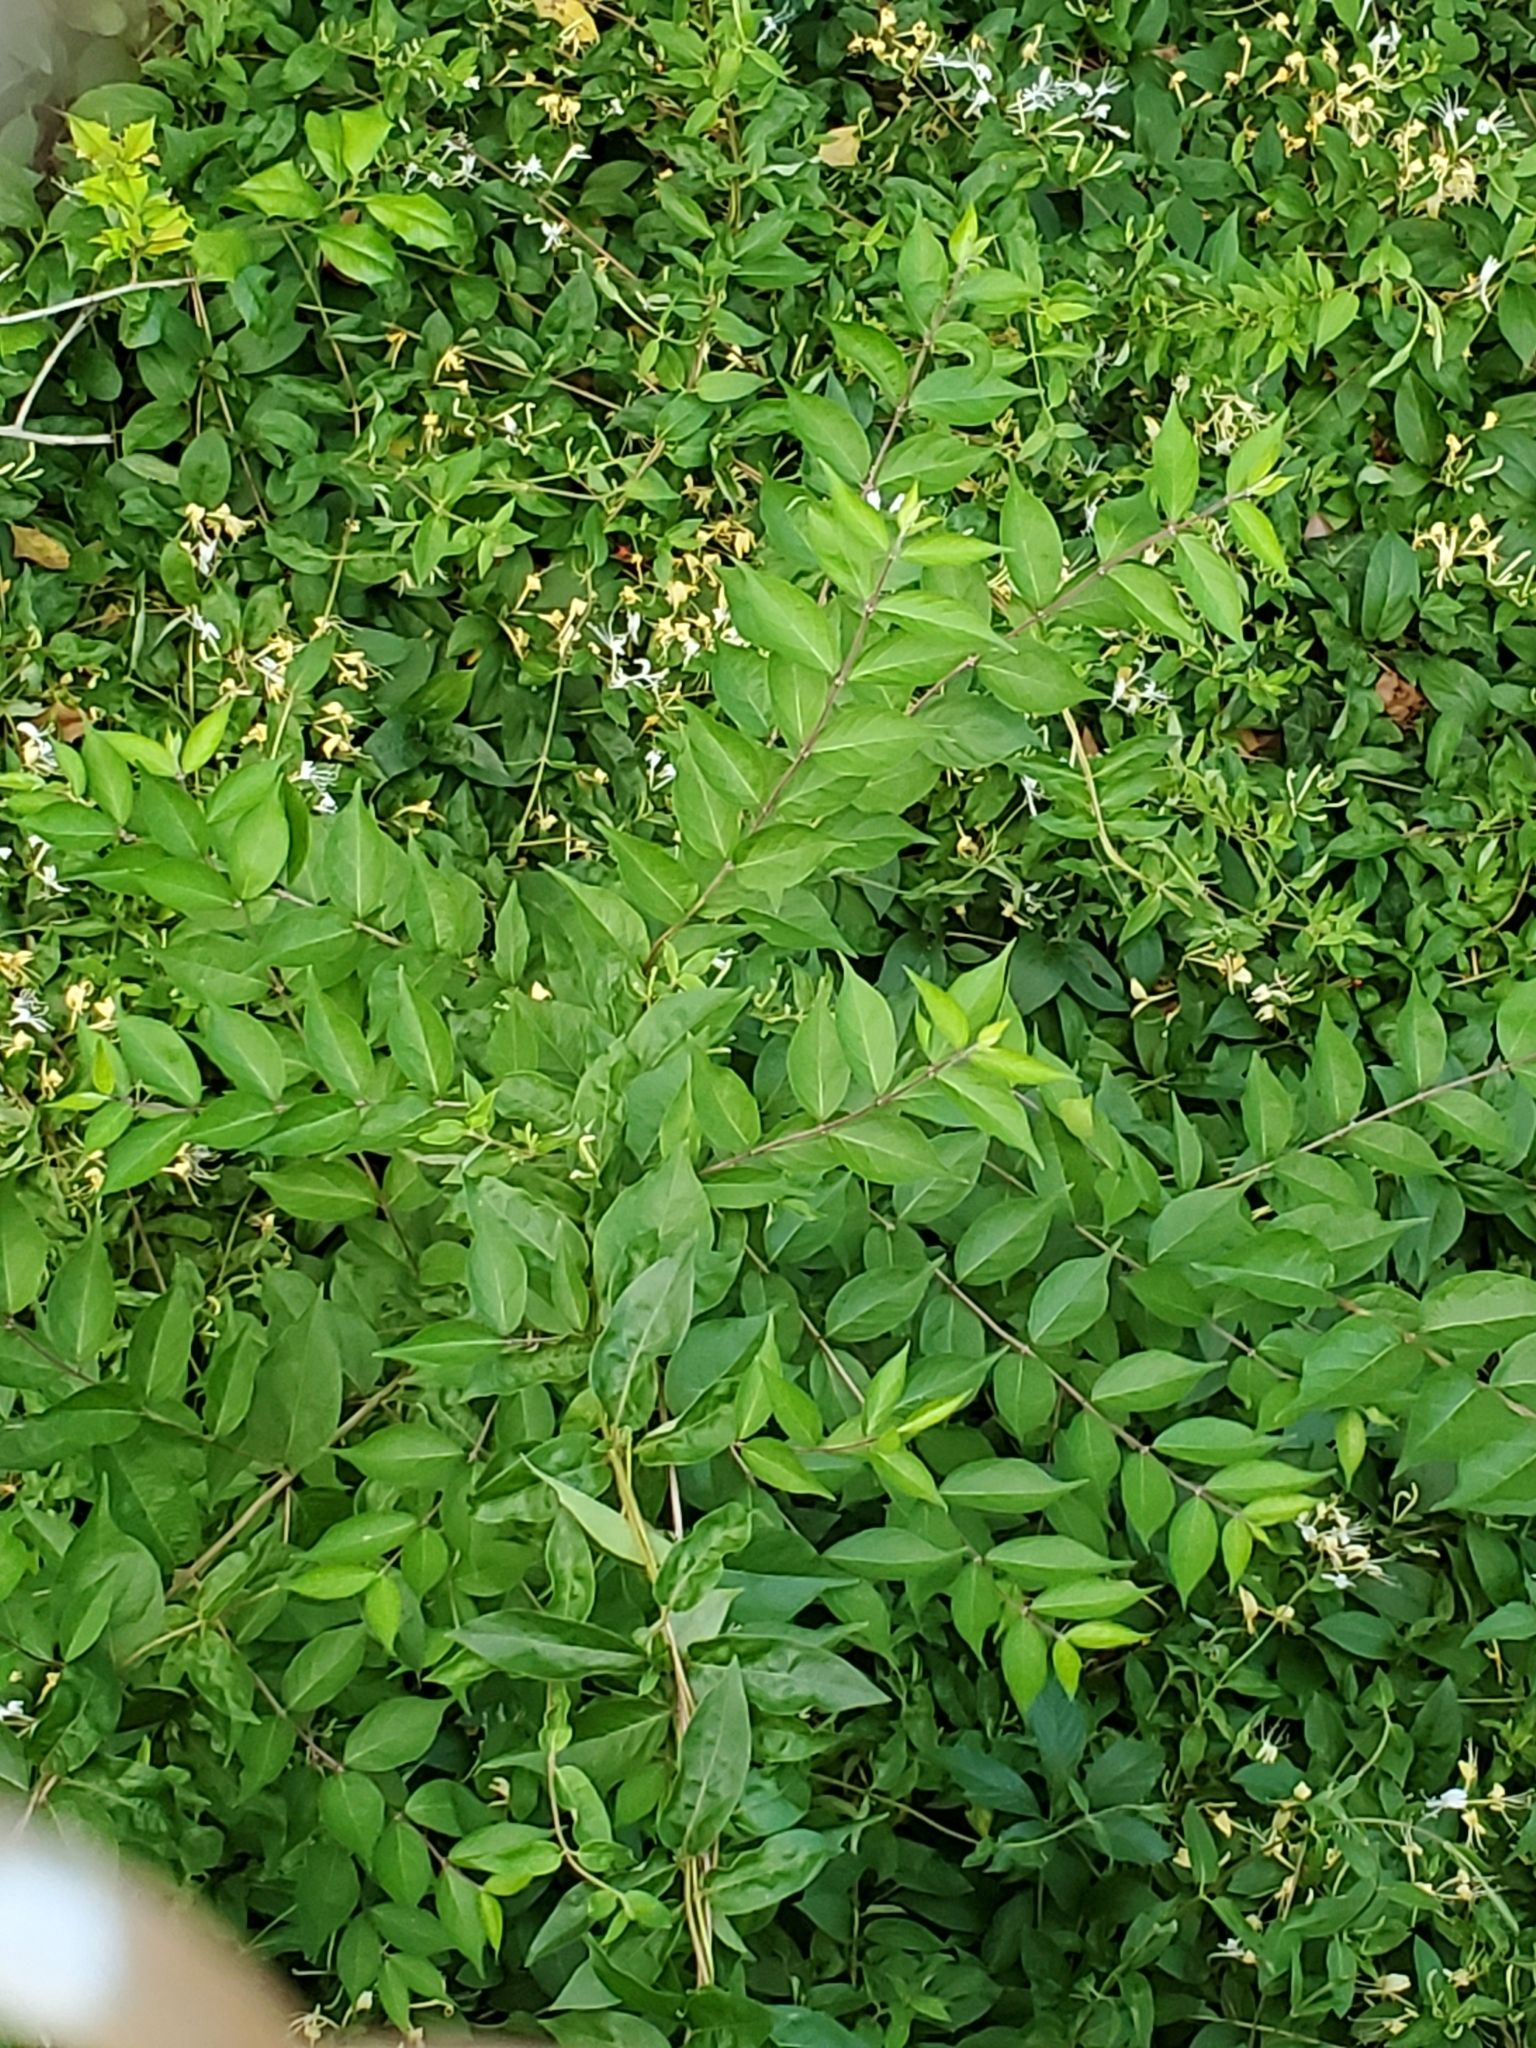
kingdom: Plantae
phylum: Tracheophyta
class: Magnoliopsida
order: Dipsacales
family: Caprifoliaceae
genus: Lonicera
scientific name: Lonicera maackii
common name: Amur honeysuckle
